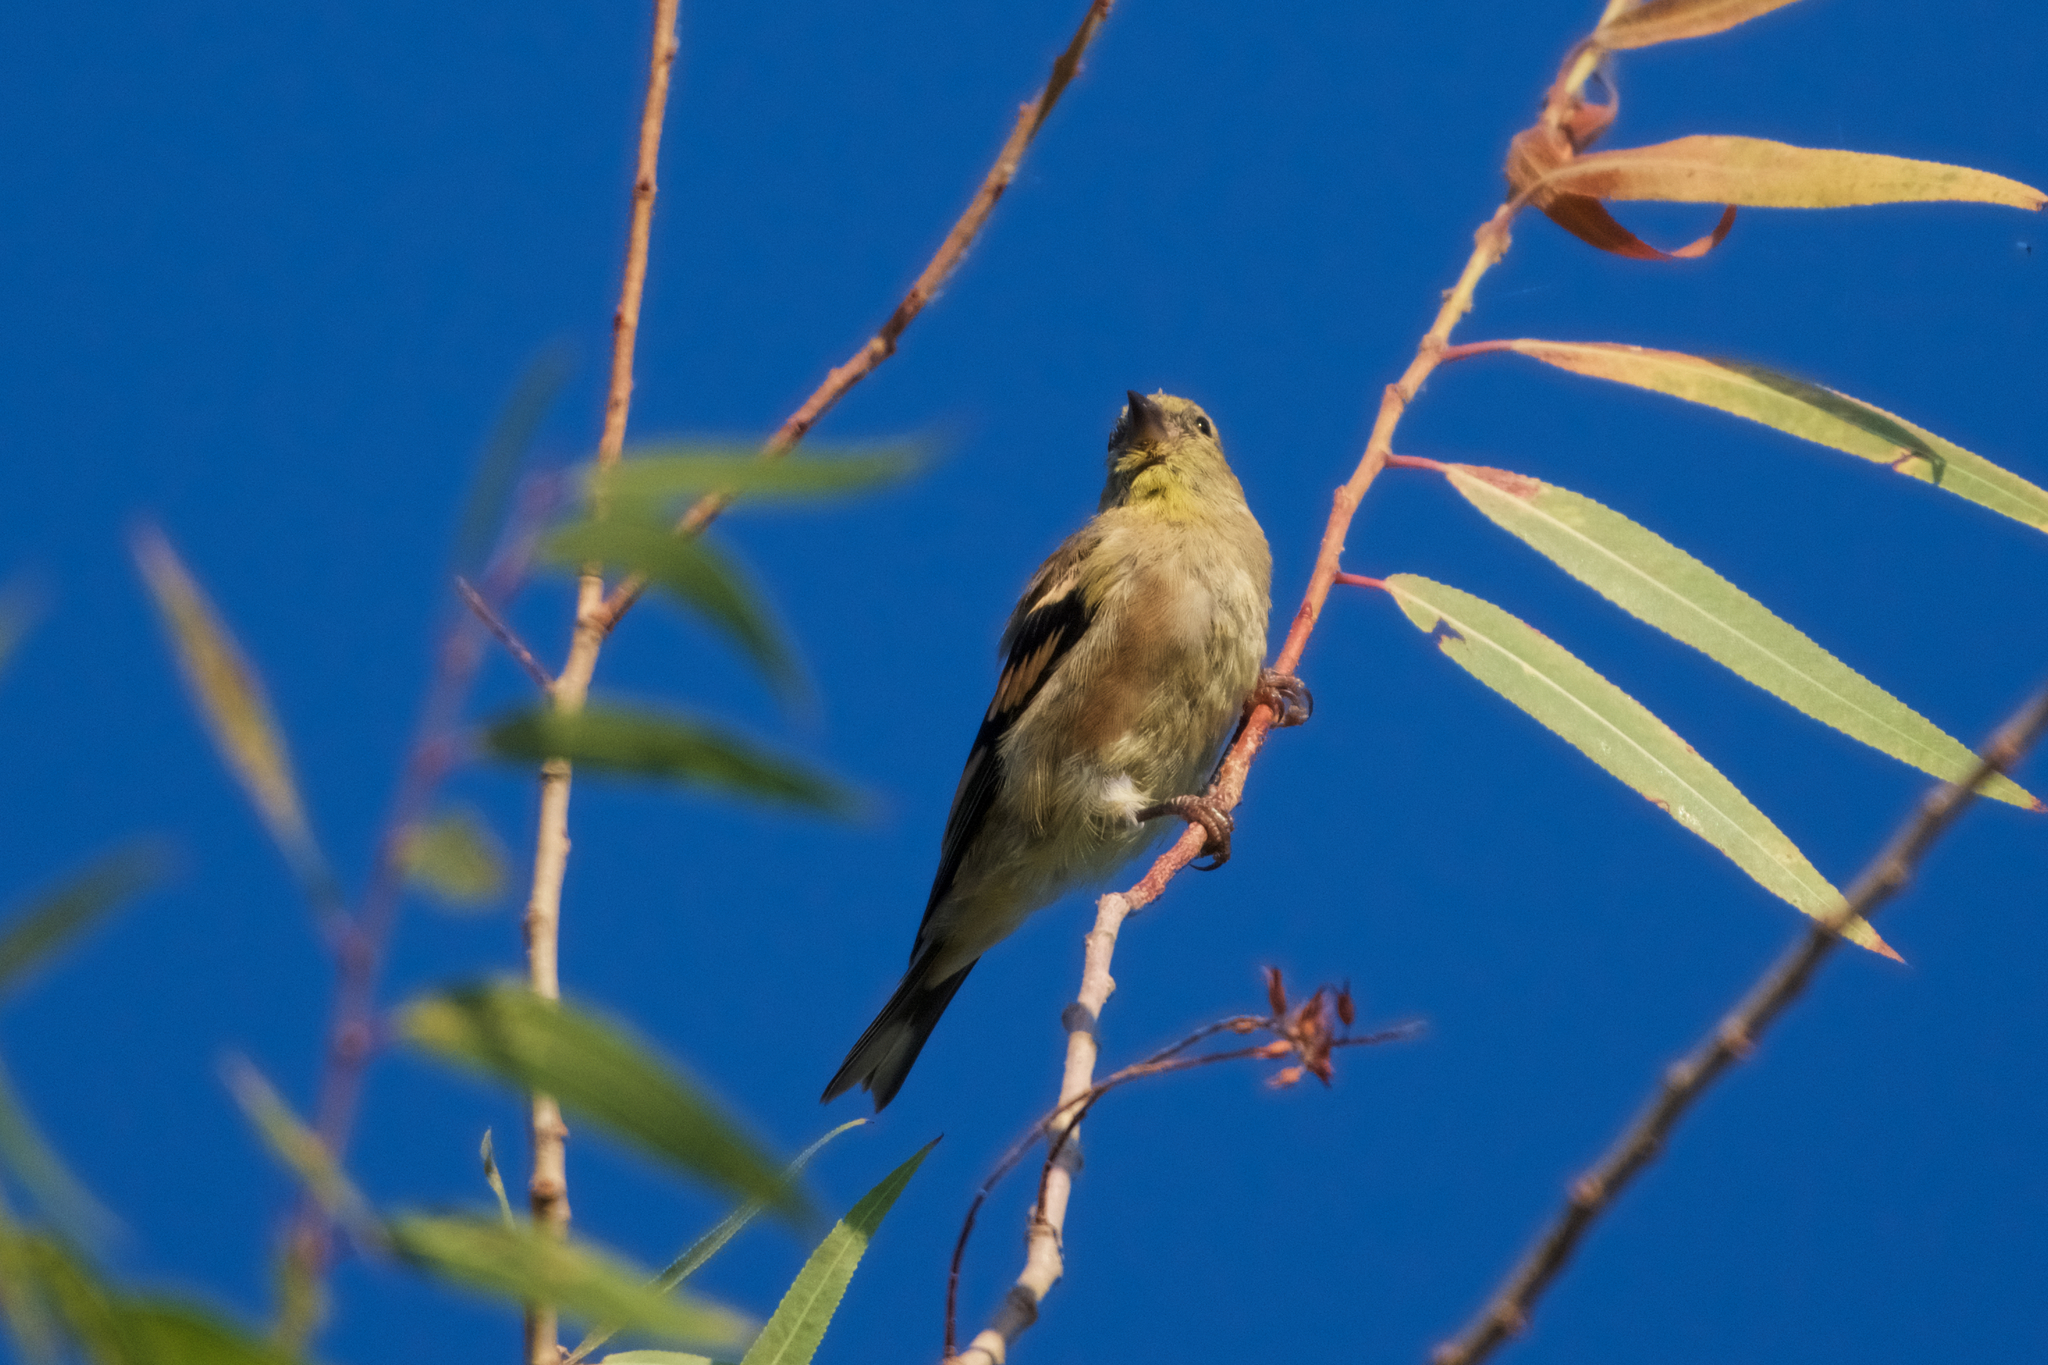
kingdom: Animalia
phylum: Chordata
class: Aves
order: Passeriformes
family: Fringillidae
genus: Spinus
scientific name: Spinus tristis
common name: American goldfinch
